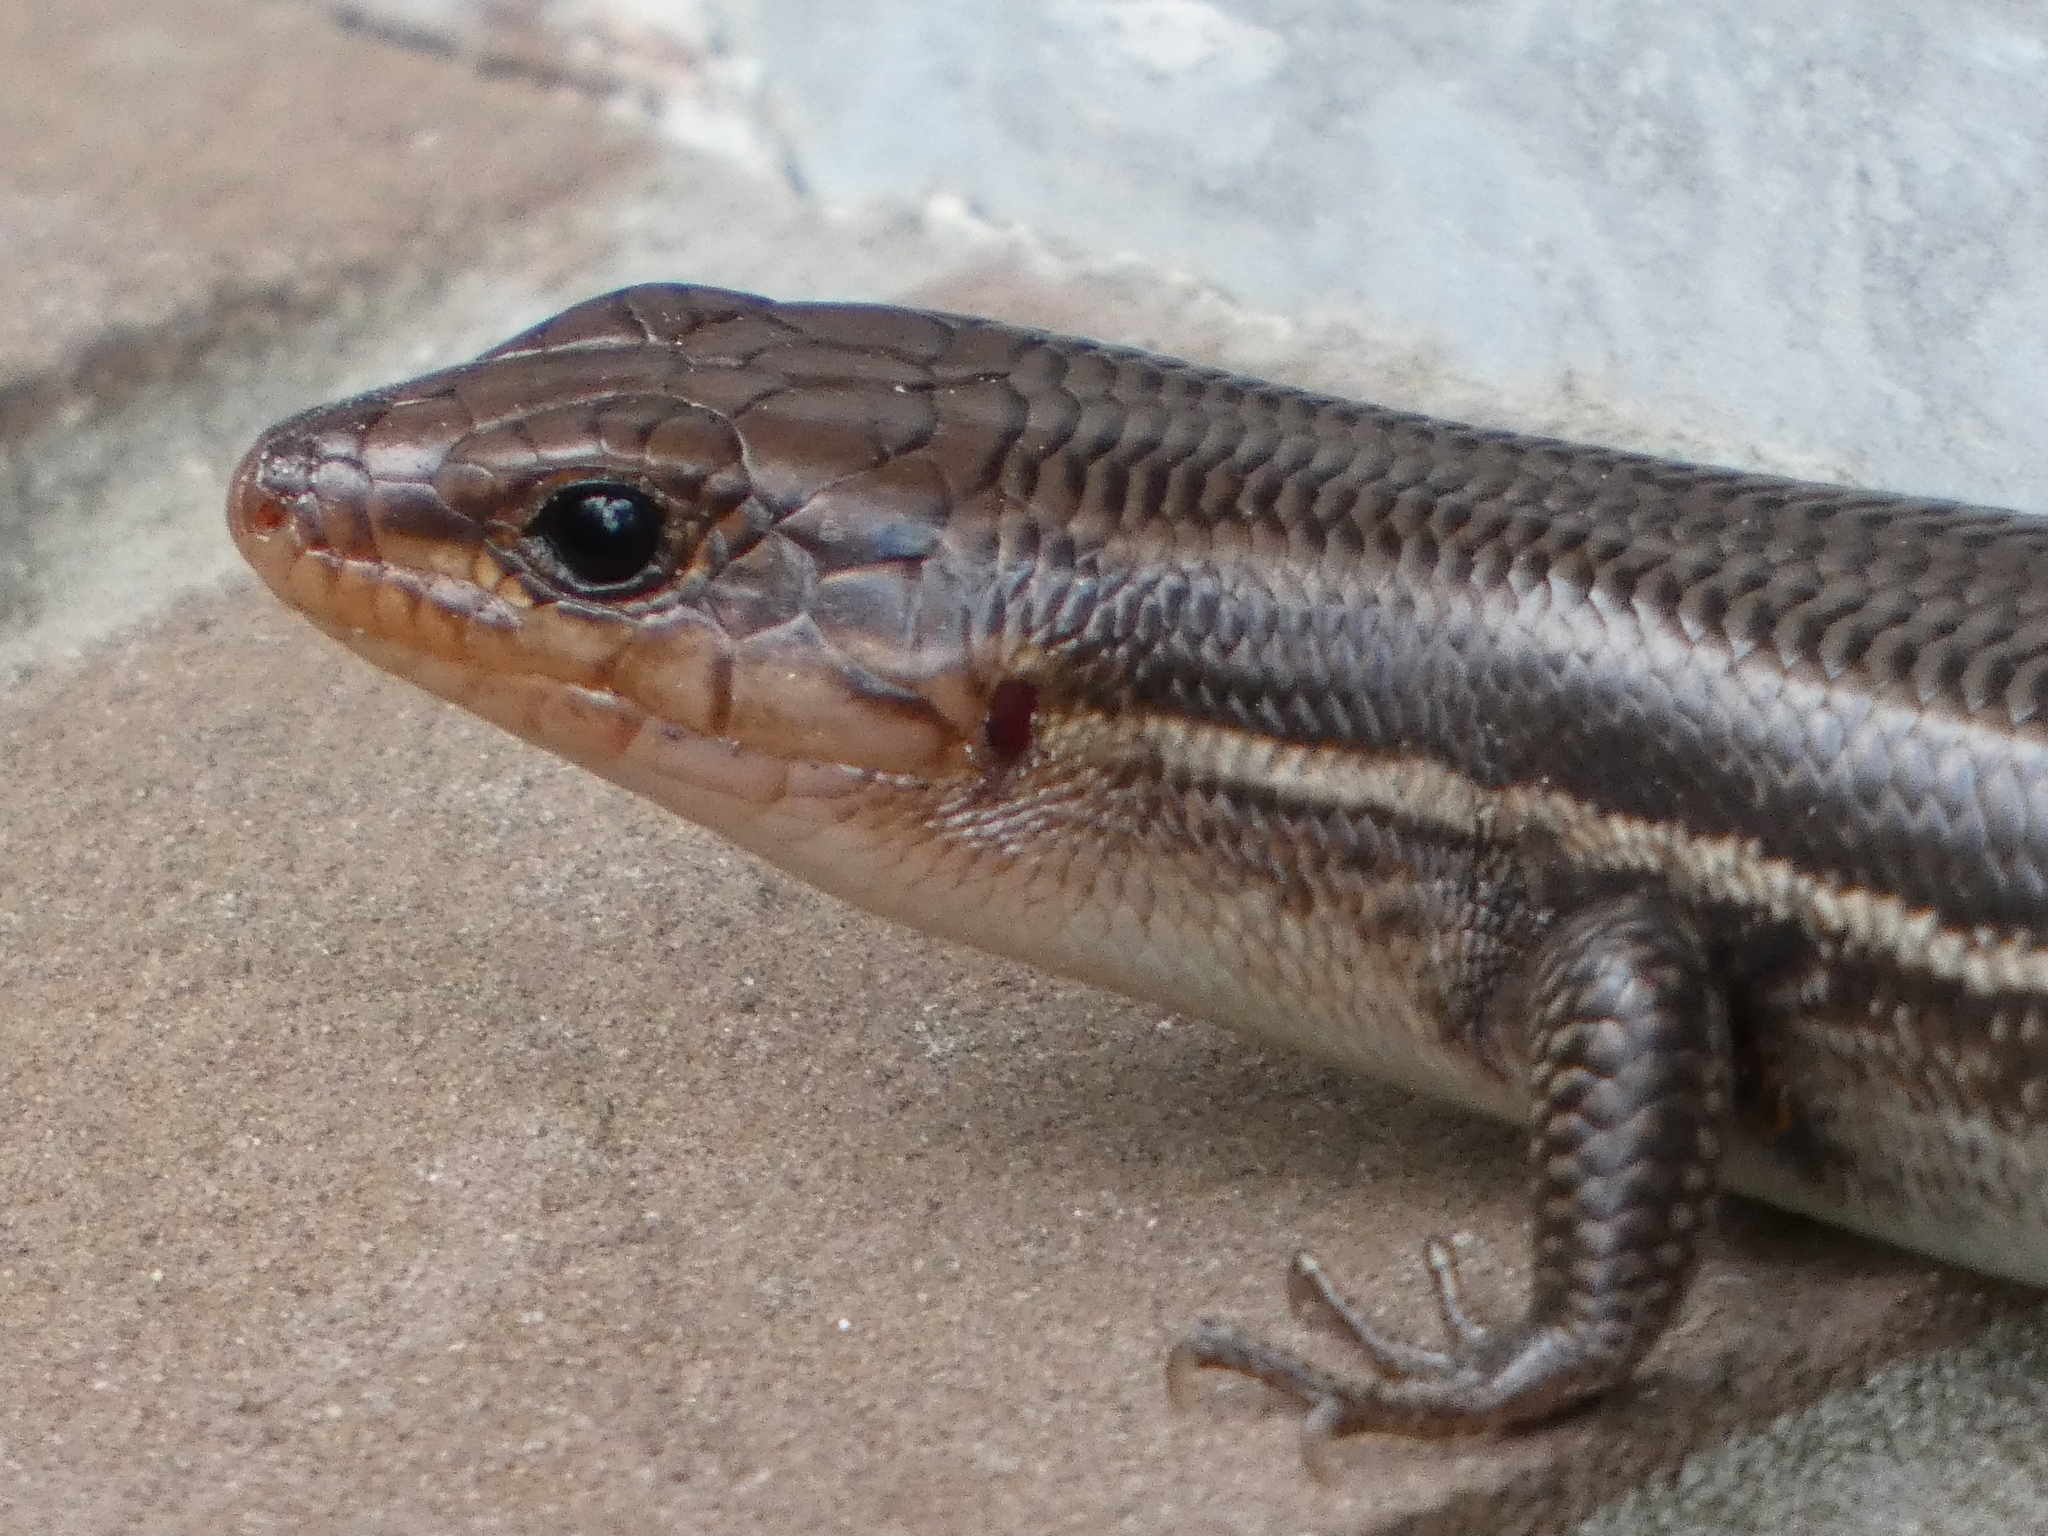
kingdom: Animalia
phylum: Chordata
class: Squamata
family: Scincidae
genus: Plestiodon
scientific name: Plestiodon laticeps
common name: Broadhead skink
